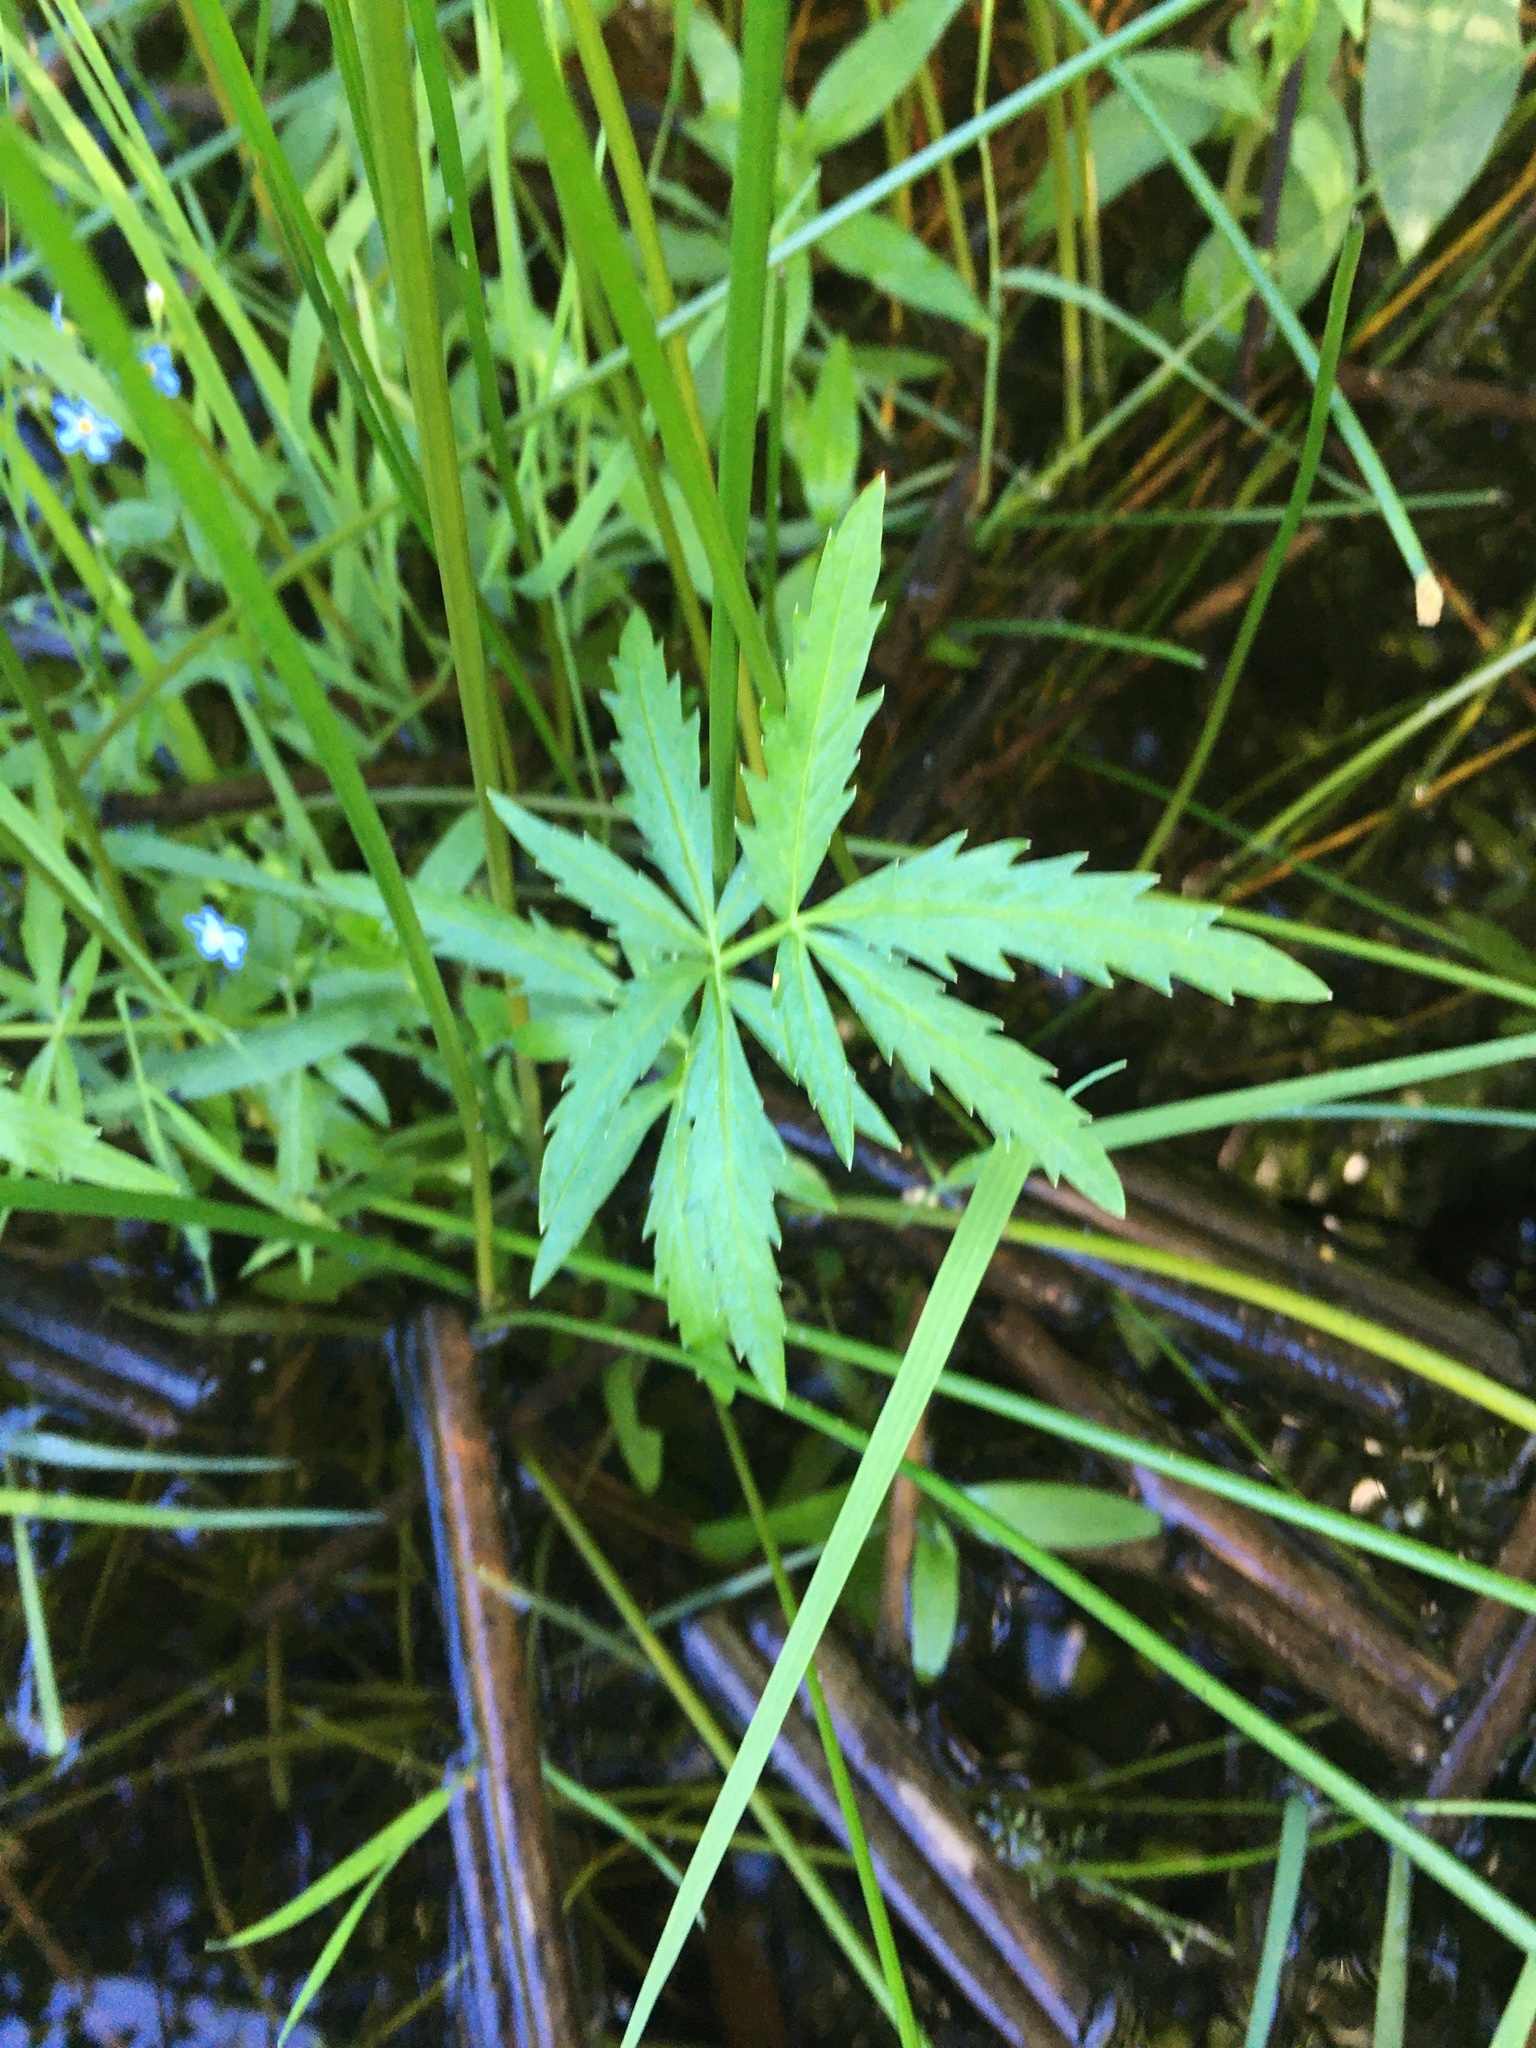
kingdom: Plantae
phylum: Tracheophyta
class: Magnoliopsida
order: Apiales
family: Apiaceae
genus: Cicuta
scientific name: Cicuta virosa
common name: Cowbane
